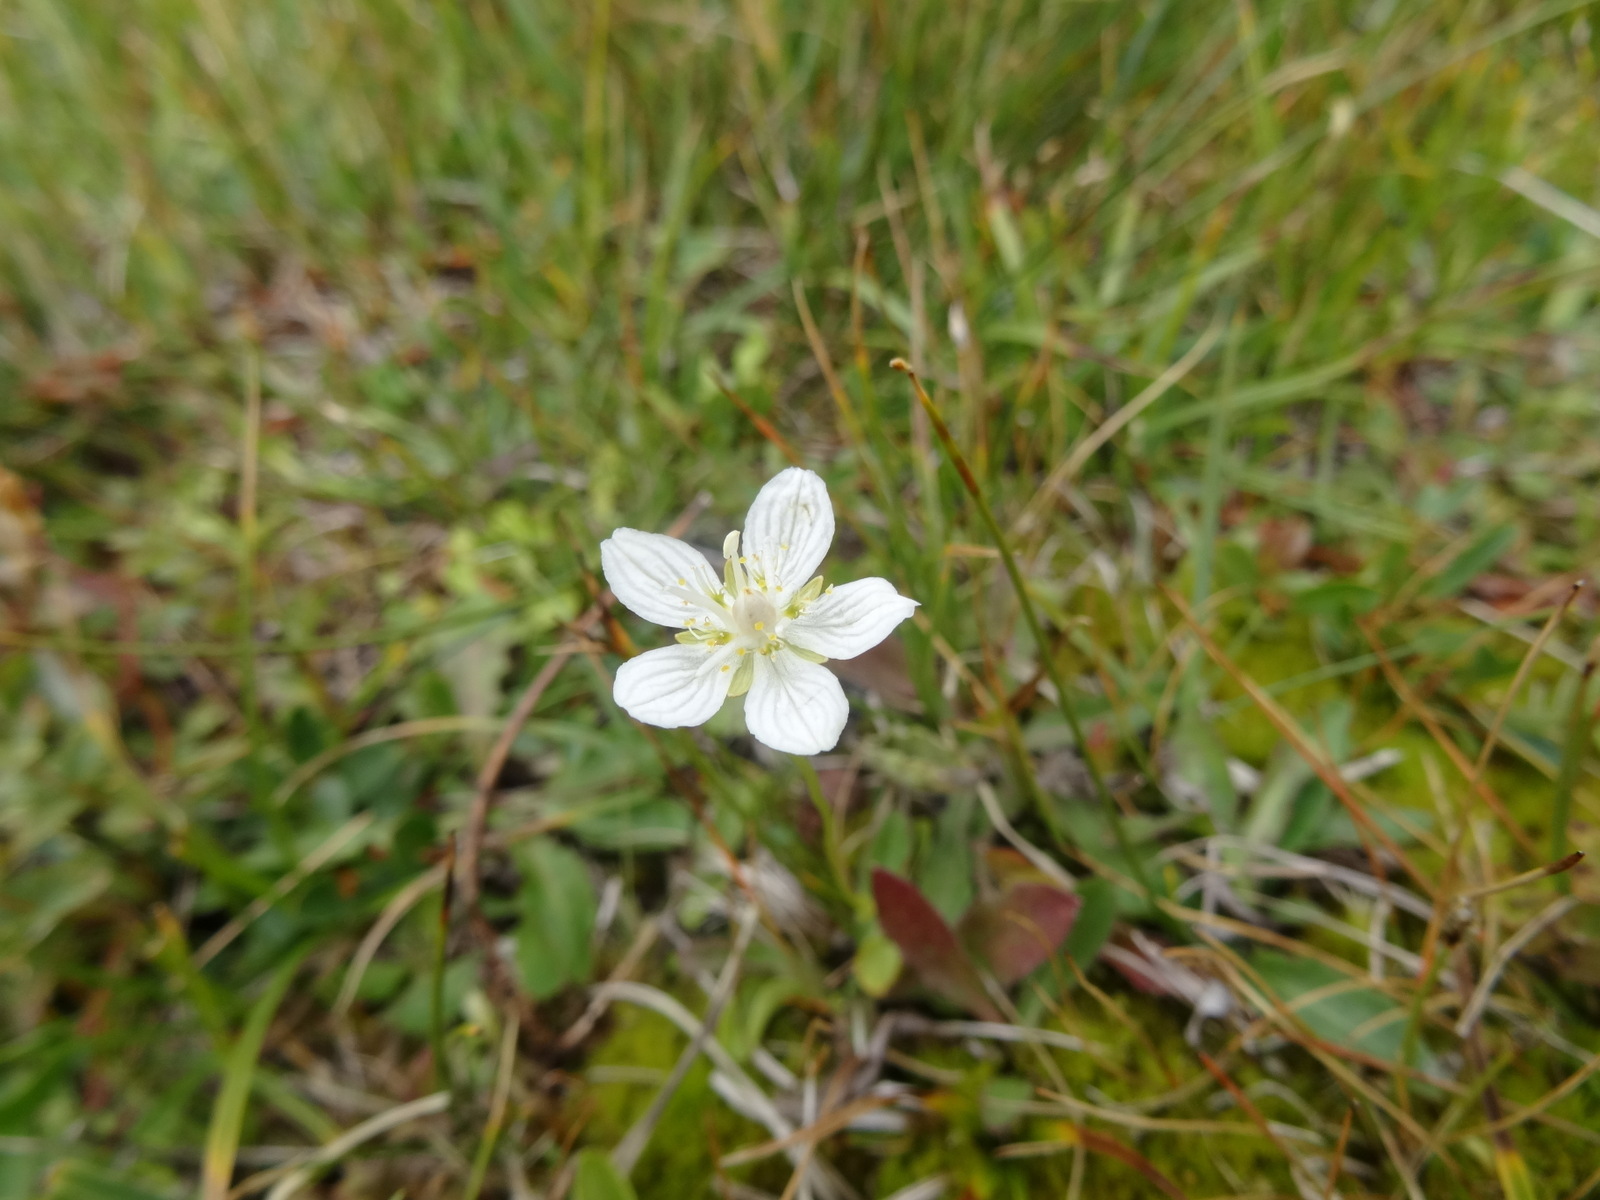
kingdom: Plantae
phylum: Tracheophyta
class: Magnoliopsida
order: Celastrales
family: Parnassiaceae
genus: Parnassia
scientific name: Parnassia palustris
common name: Grass-of-parnassus
